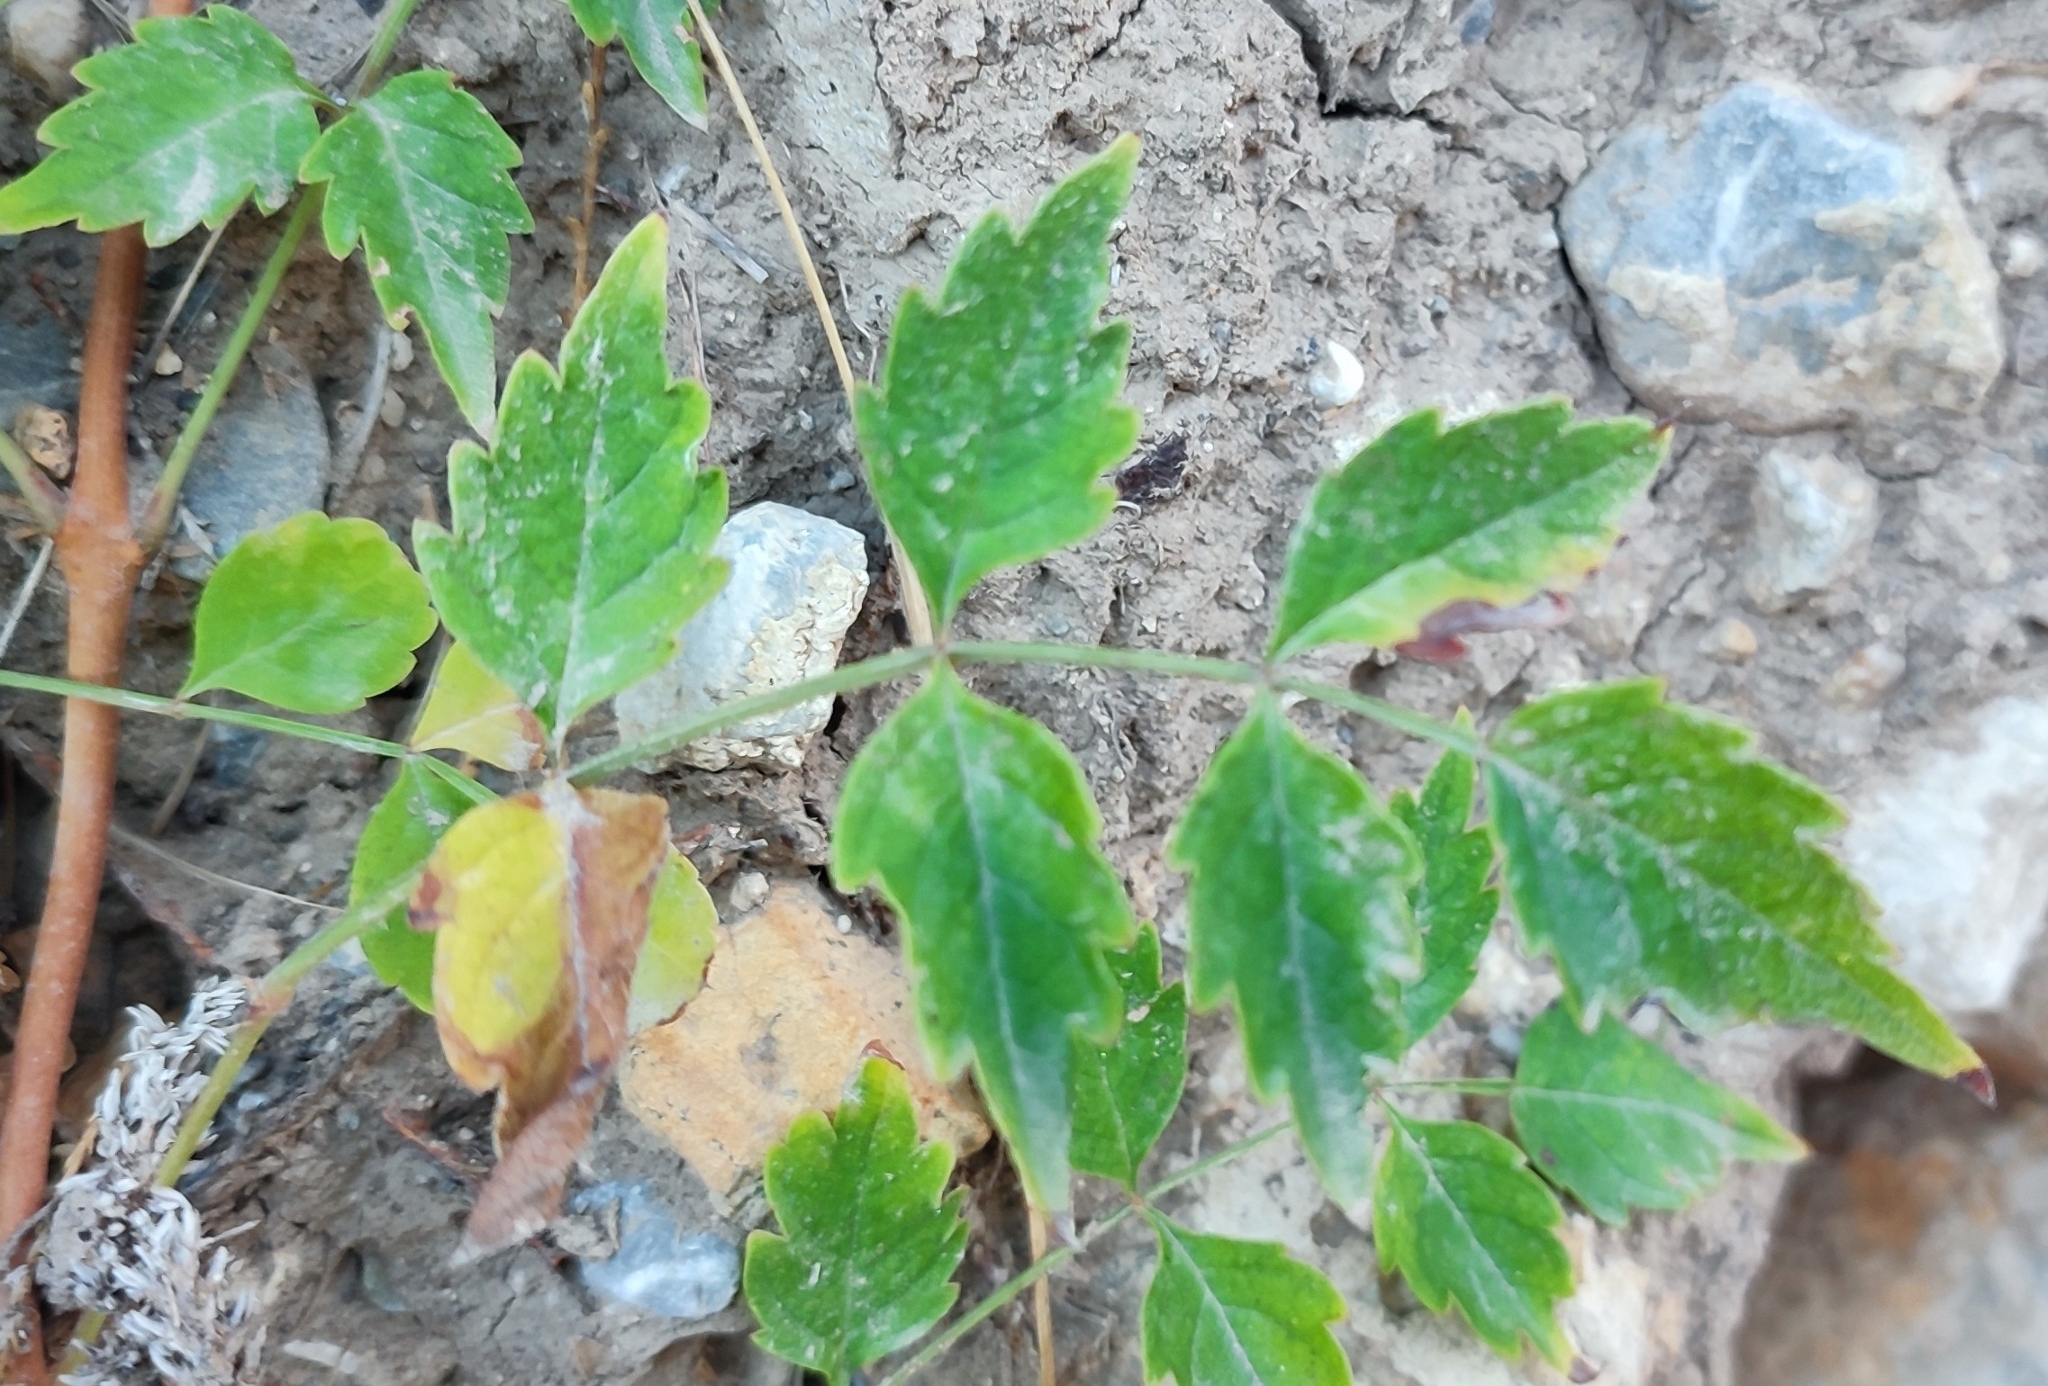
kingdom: Plantae
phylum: Tracheophyta
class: Magnoliopsida
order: Lamiales
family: Bignoniaceae
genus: Campsis
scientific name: Campsis radicans
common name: Trumpet-creeper
